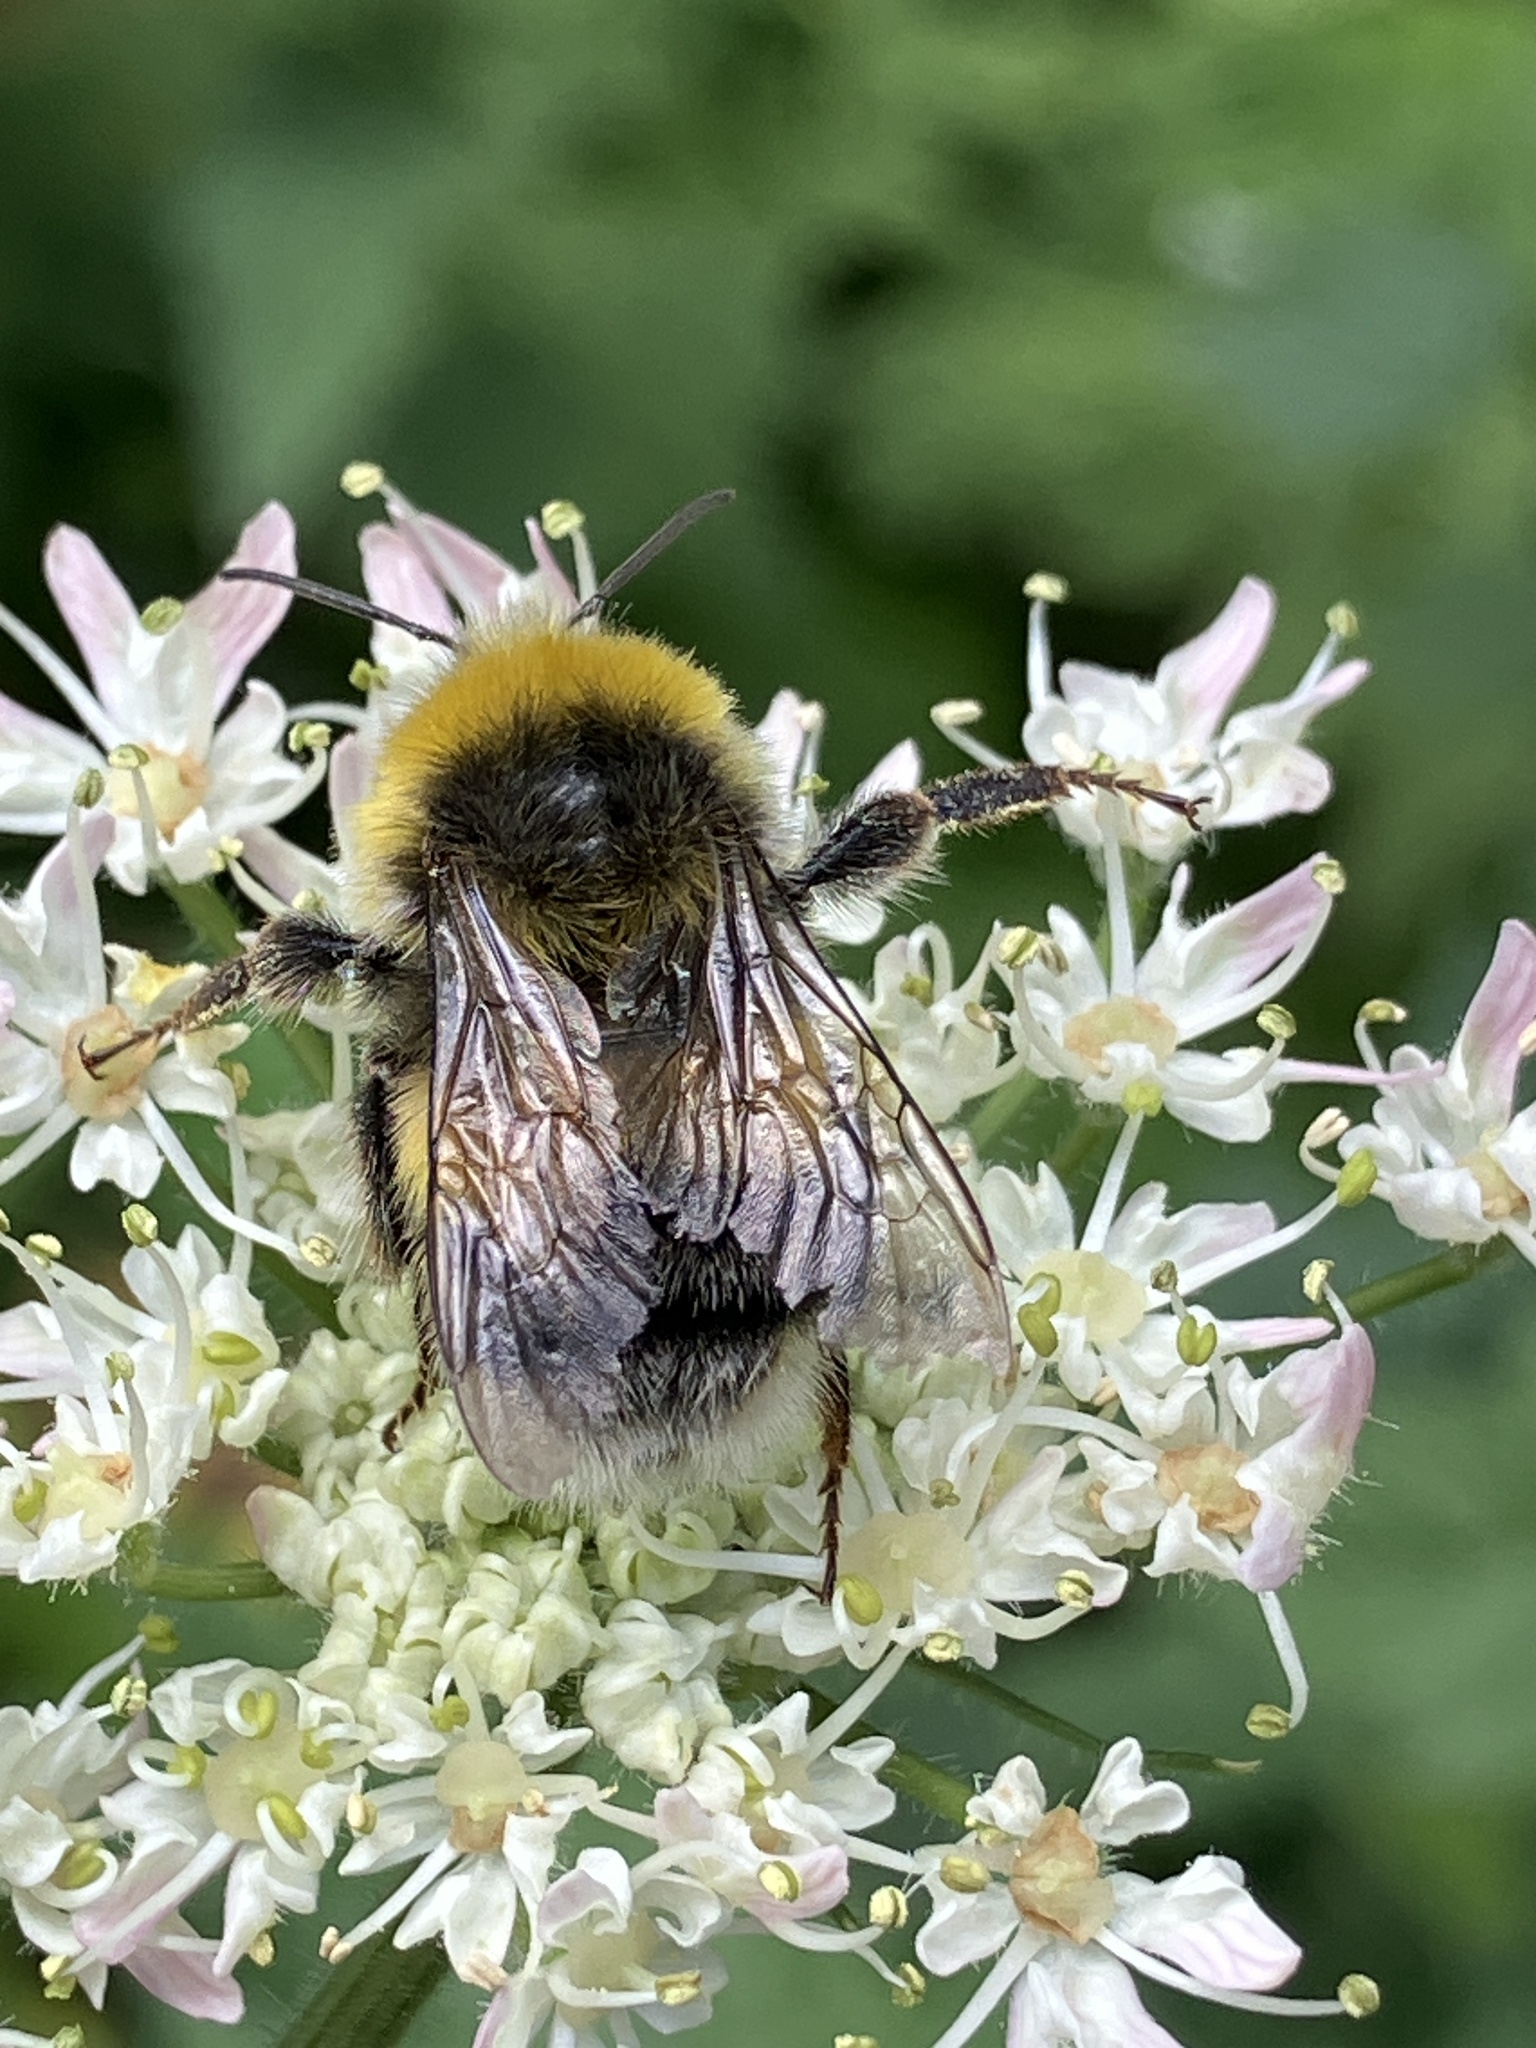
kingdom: Animalia
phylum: Arthropoda
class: Insecta
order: Hymenoptera
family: Apidae
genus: Bombus
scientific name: Bombus lucorum
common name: White-tailed bumblebee
